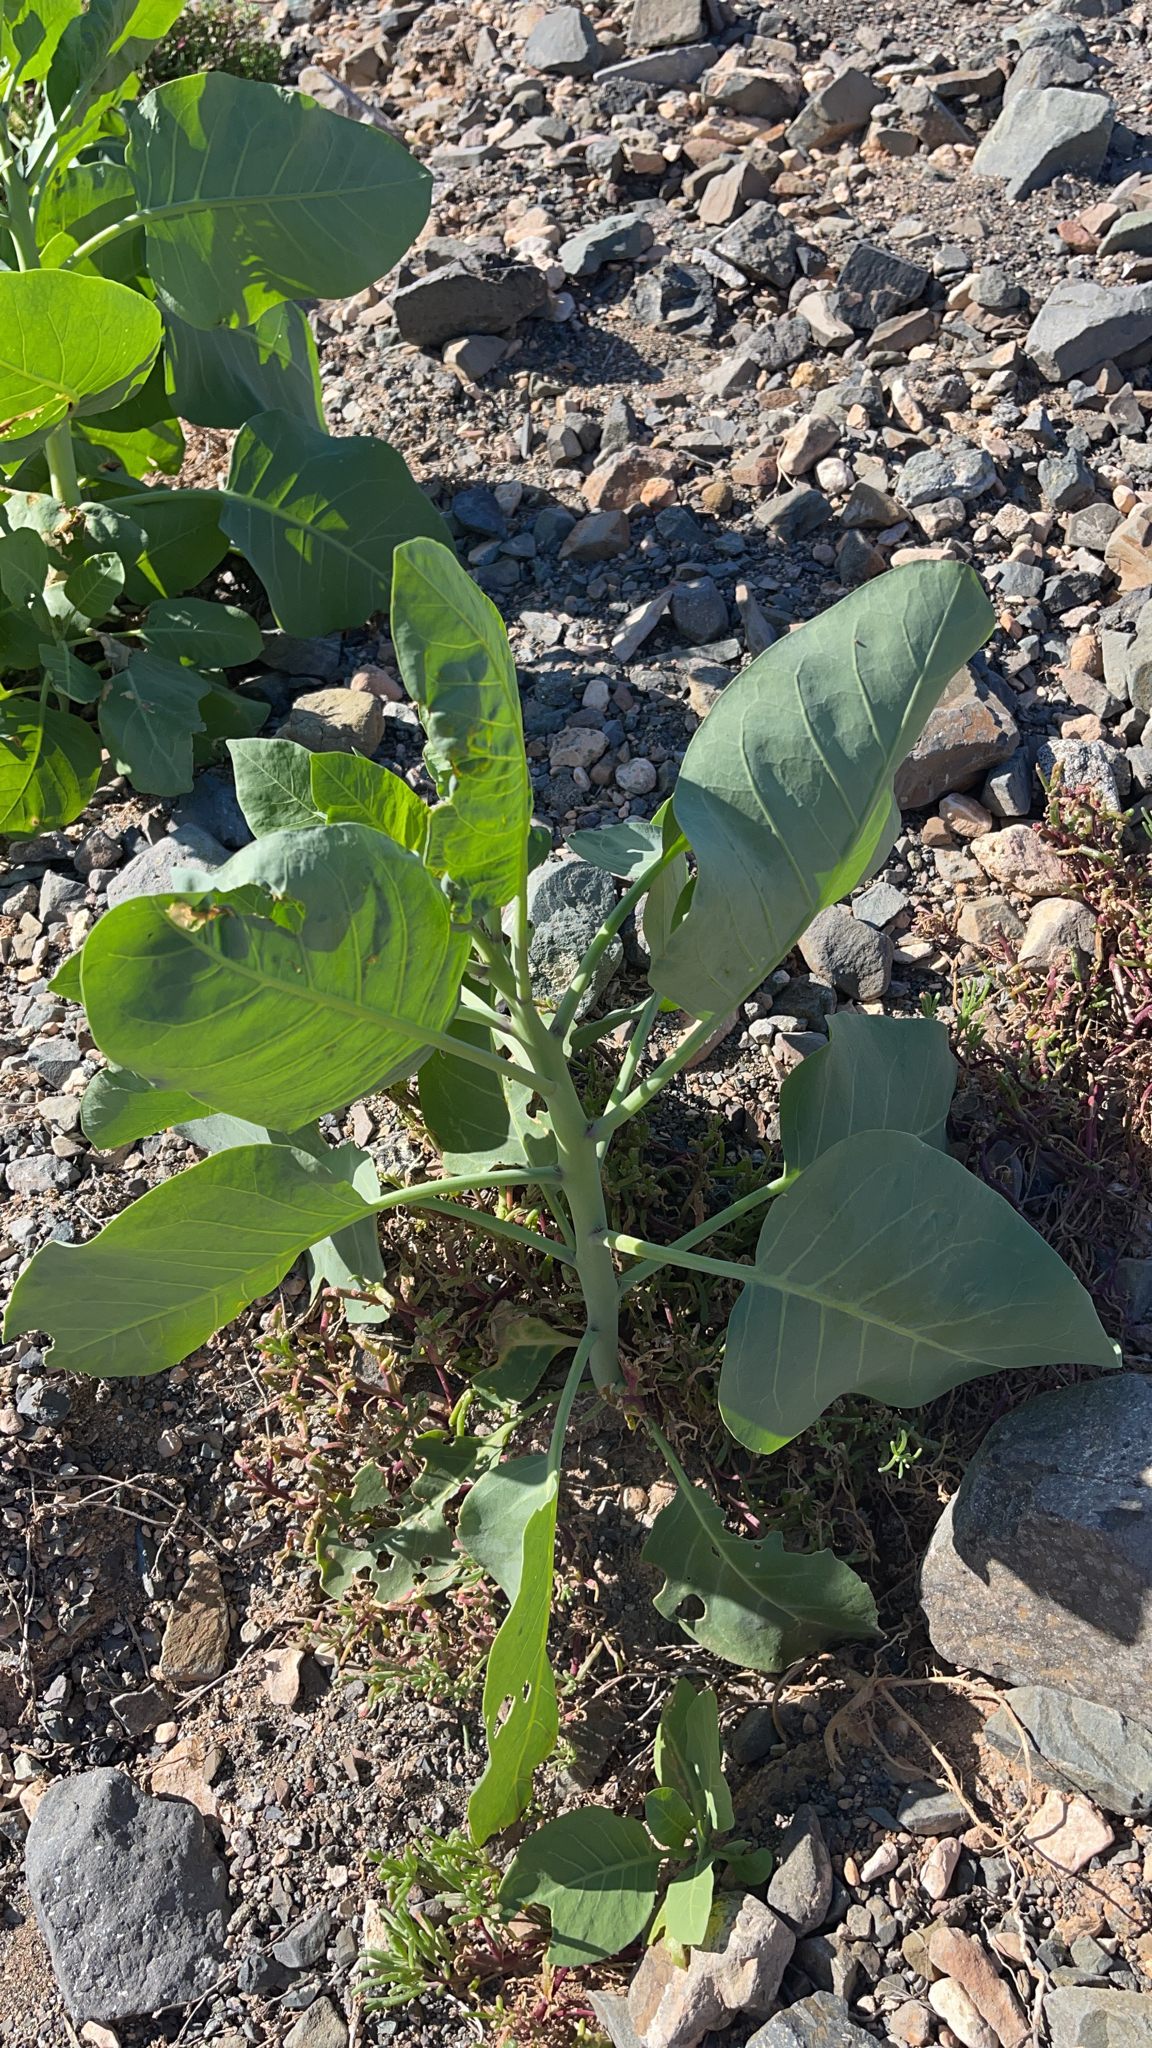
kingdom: Plantae
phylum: Tracheophyta
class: Magnoliopsida
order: Solanales
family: Solanaceae
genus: Nicotiana
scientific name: Nicotiana glauca
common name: Tree tobacco
